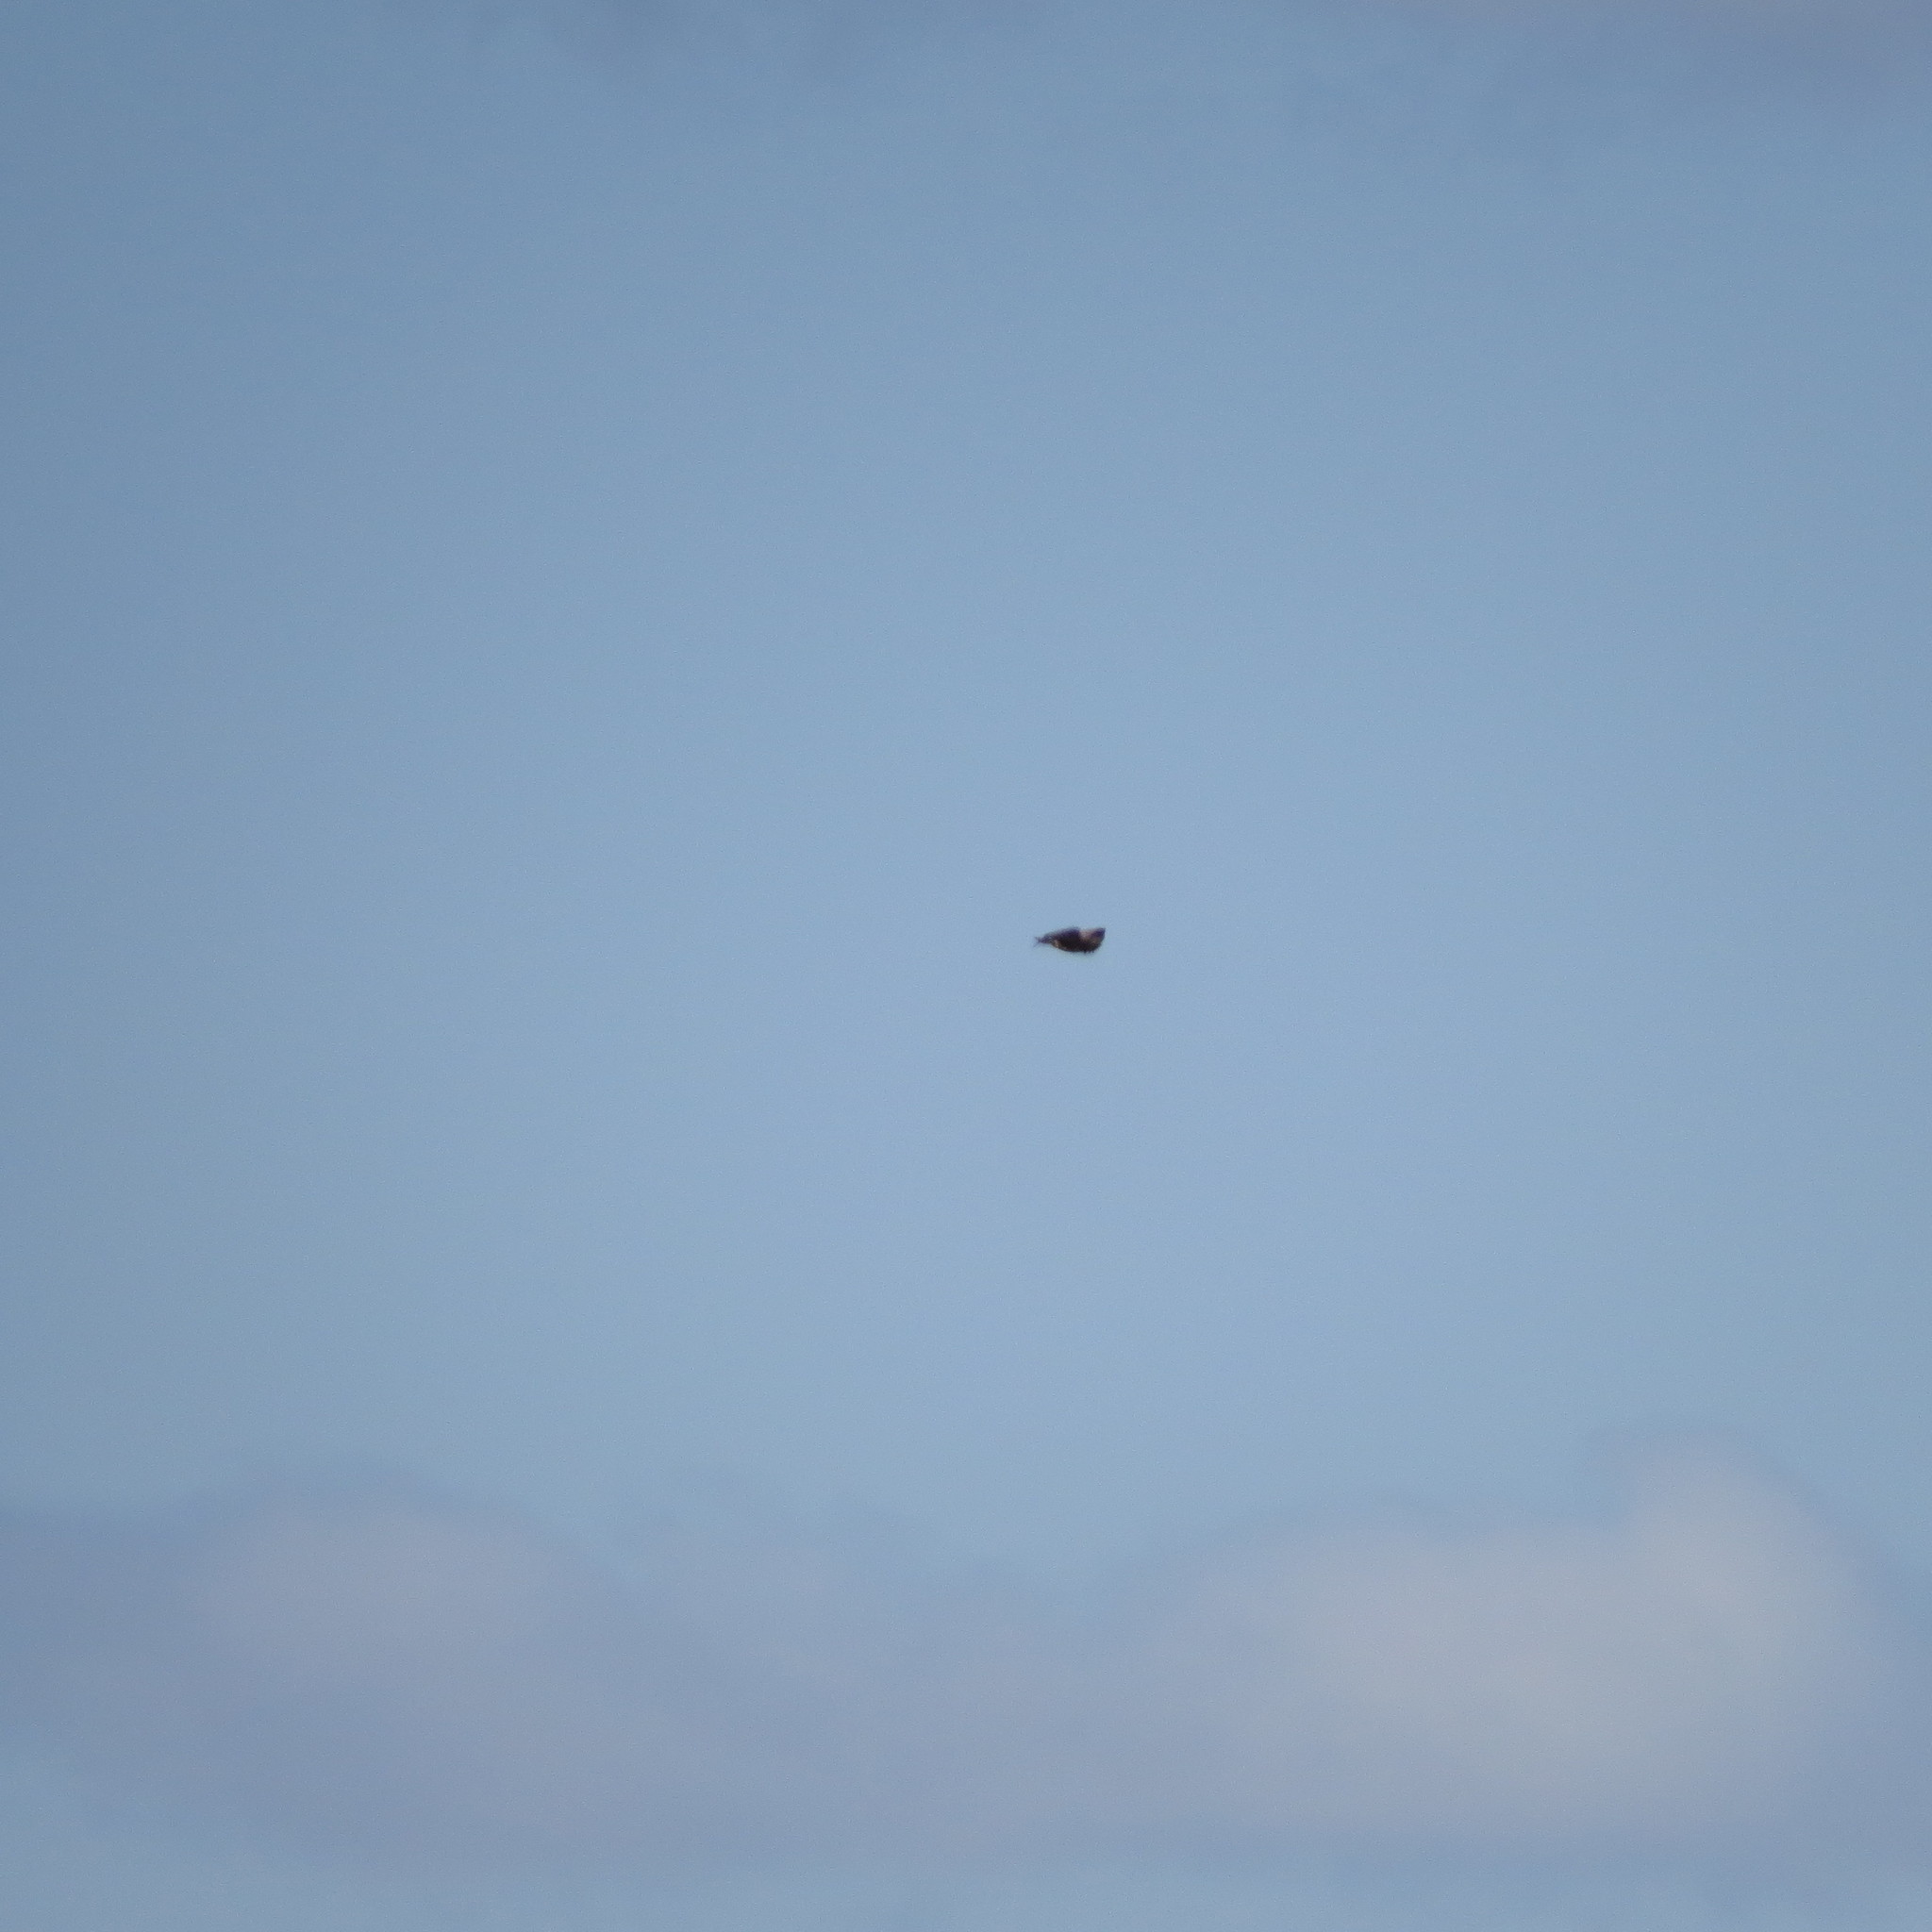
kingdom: Animalia
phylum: Chordata
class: Aves
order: Accipitriformes
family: Accipitridae
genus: Buteo
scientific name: Buteo buteo
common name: Common buzzard
